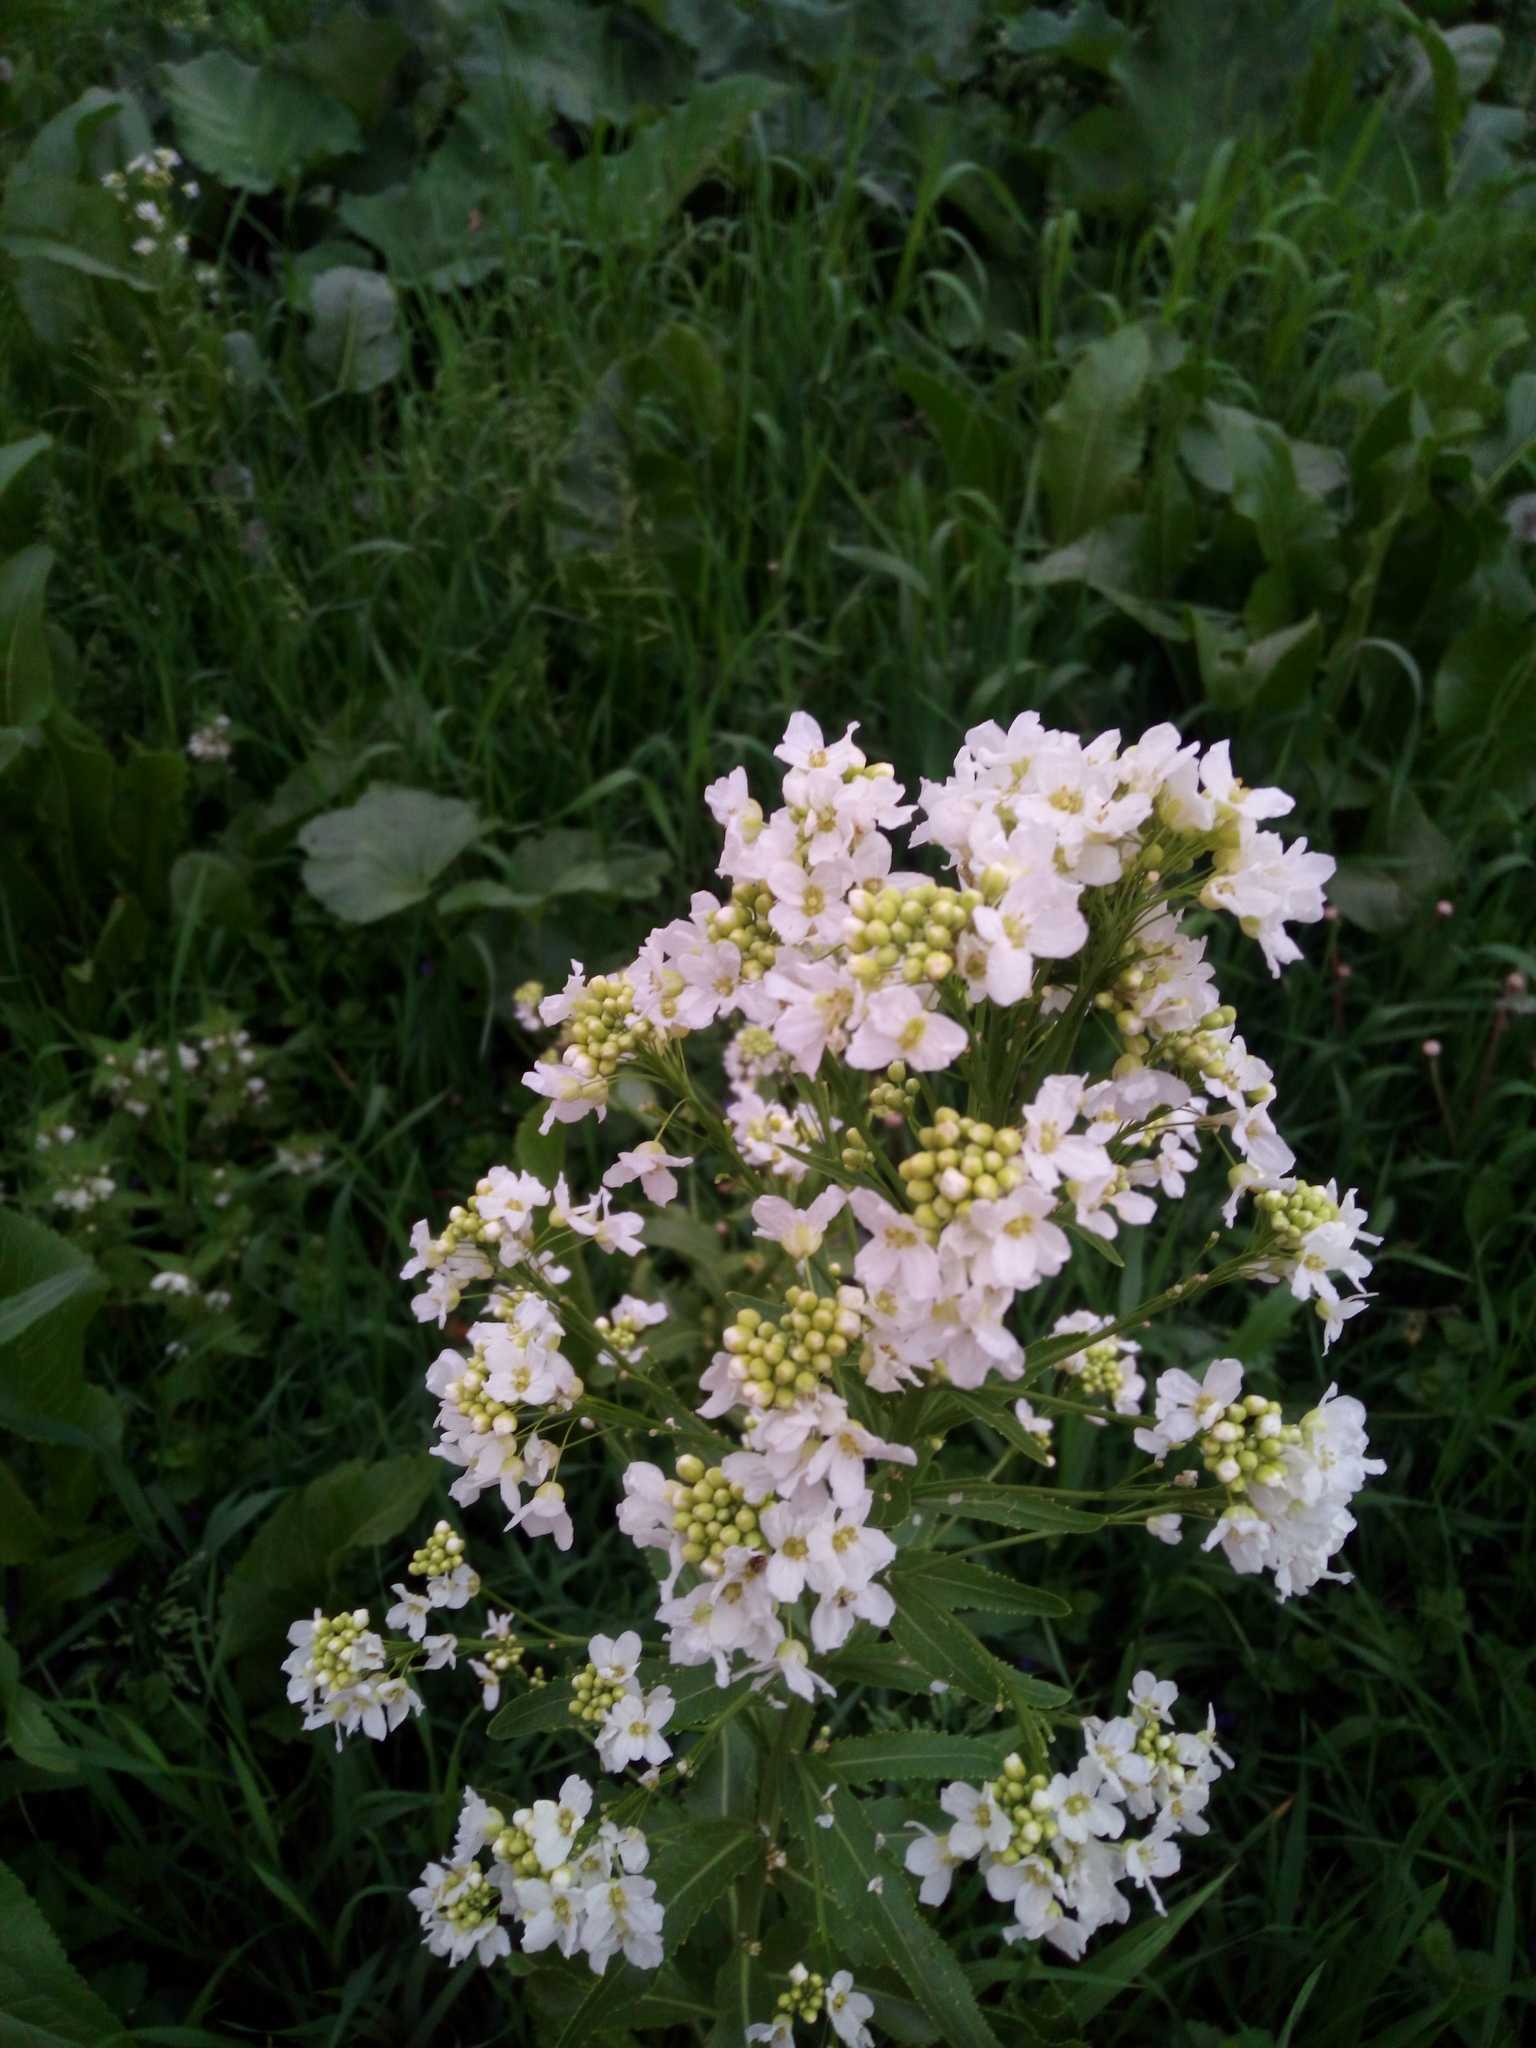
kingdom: Plantae
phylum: Tracheophyta
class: Magnoliopsida
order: Brassicales
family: Brassicaceae
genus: Armoracia
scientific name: Armoracia rusticana
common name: Horseradish
